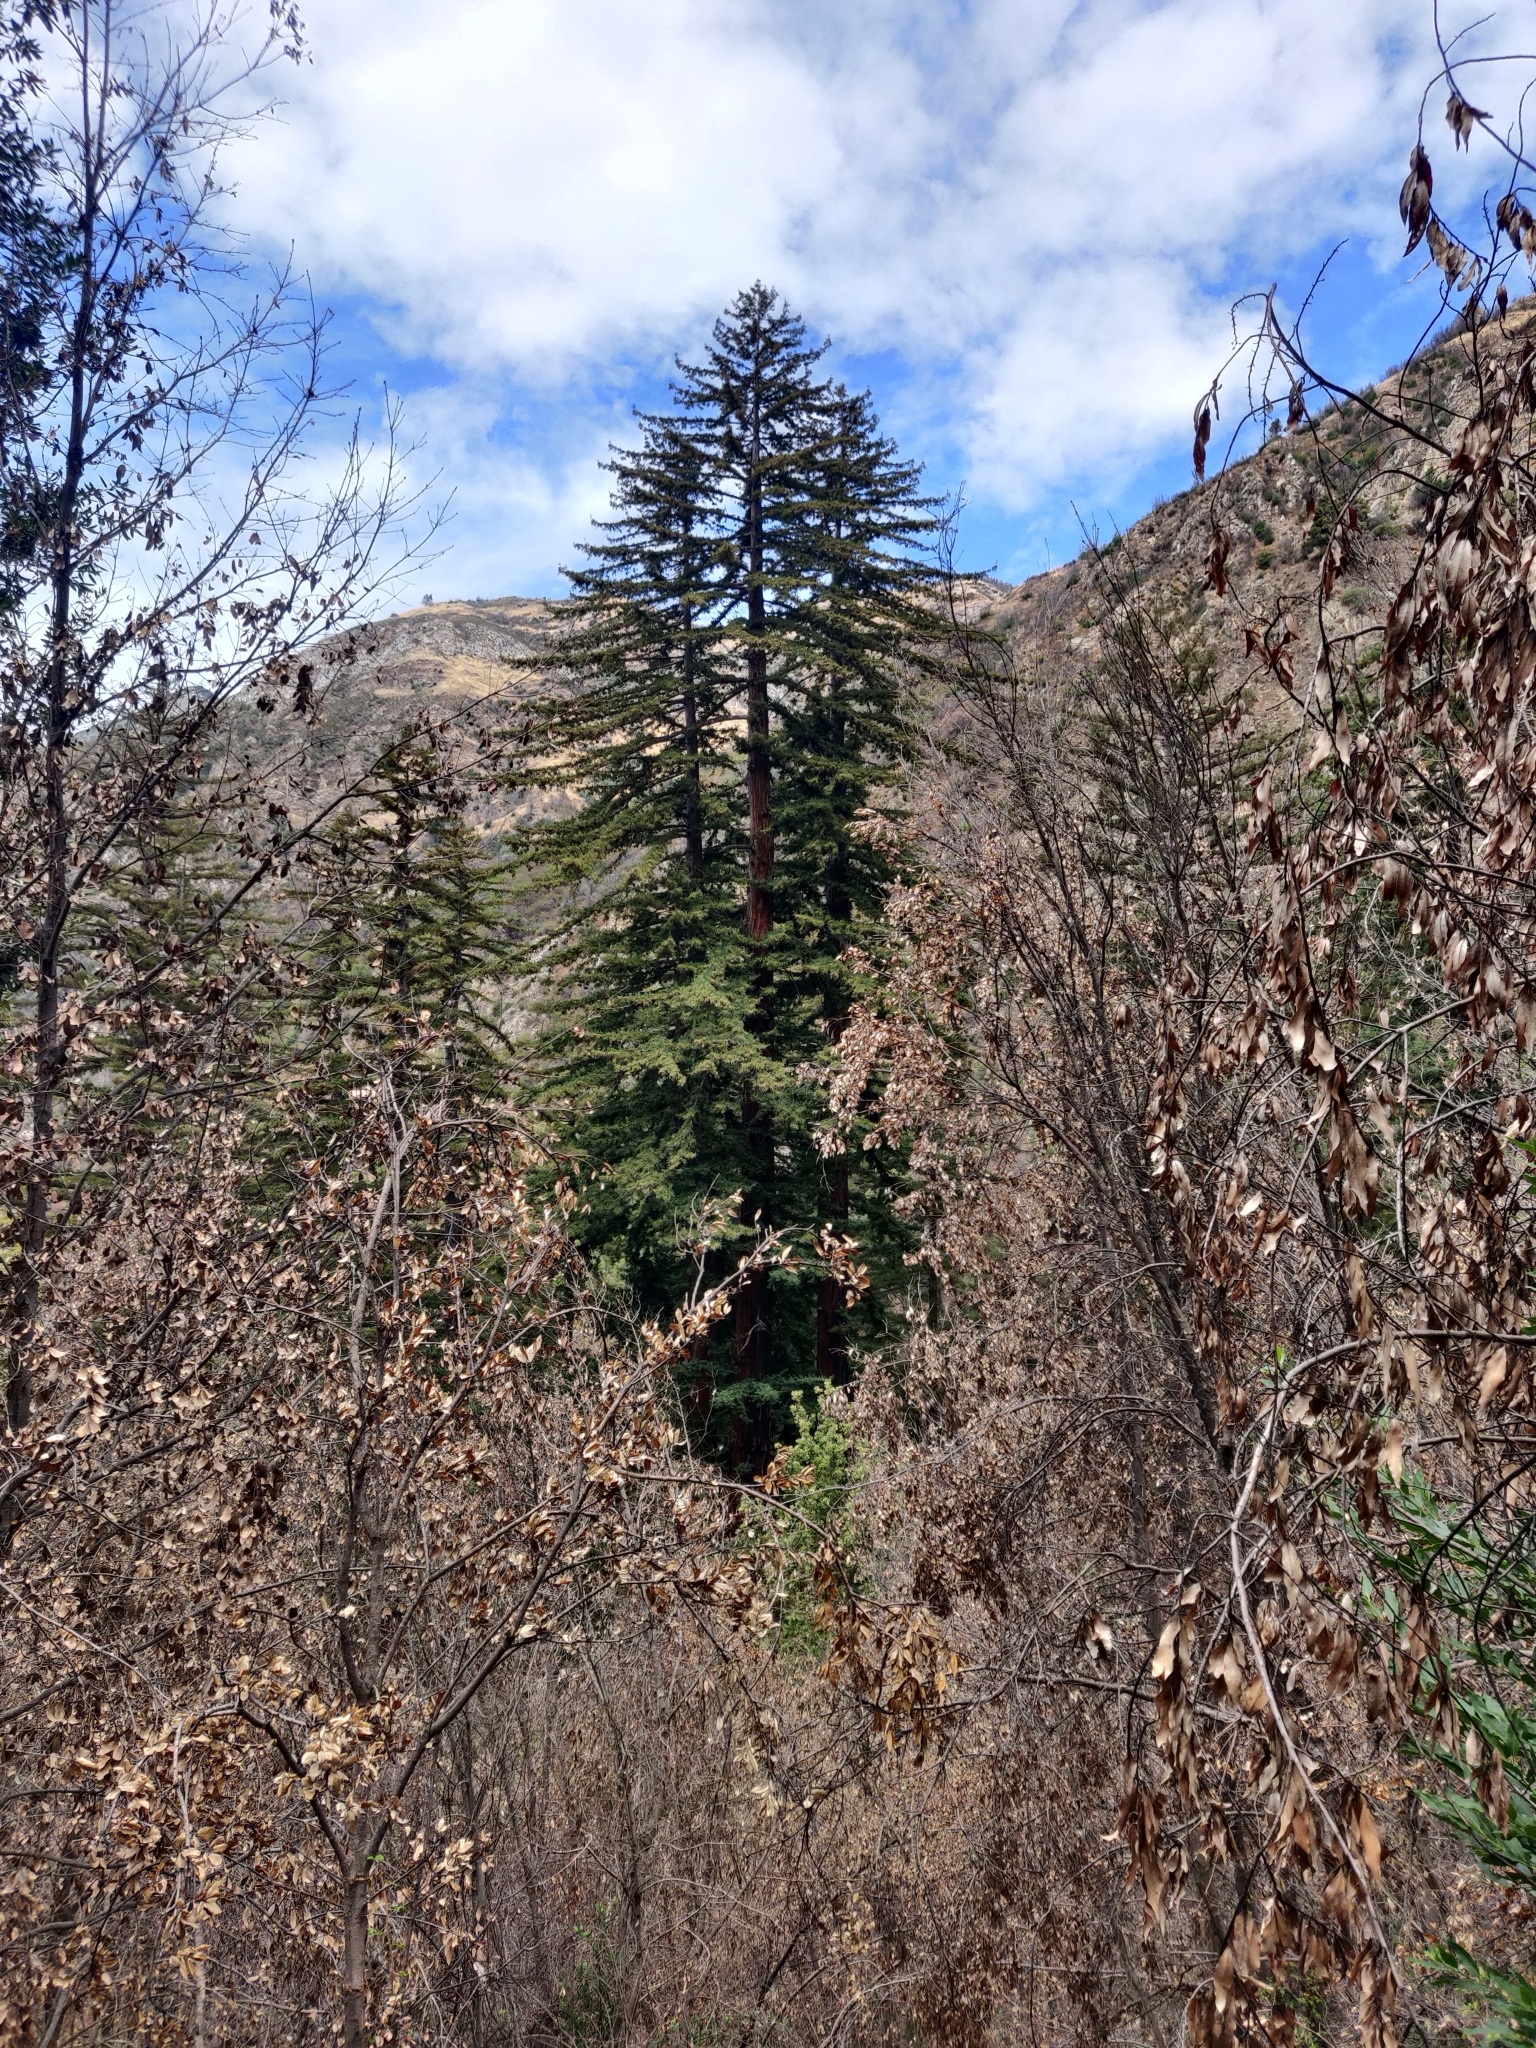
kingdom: Plantae
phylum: Tracheophyta
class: Pinopsida
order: Pinales
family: Cupressaceae
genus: Sequoia
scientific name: Sequoia sempervirens
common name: Coast redwood
